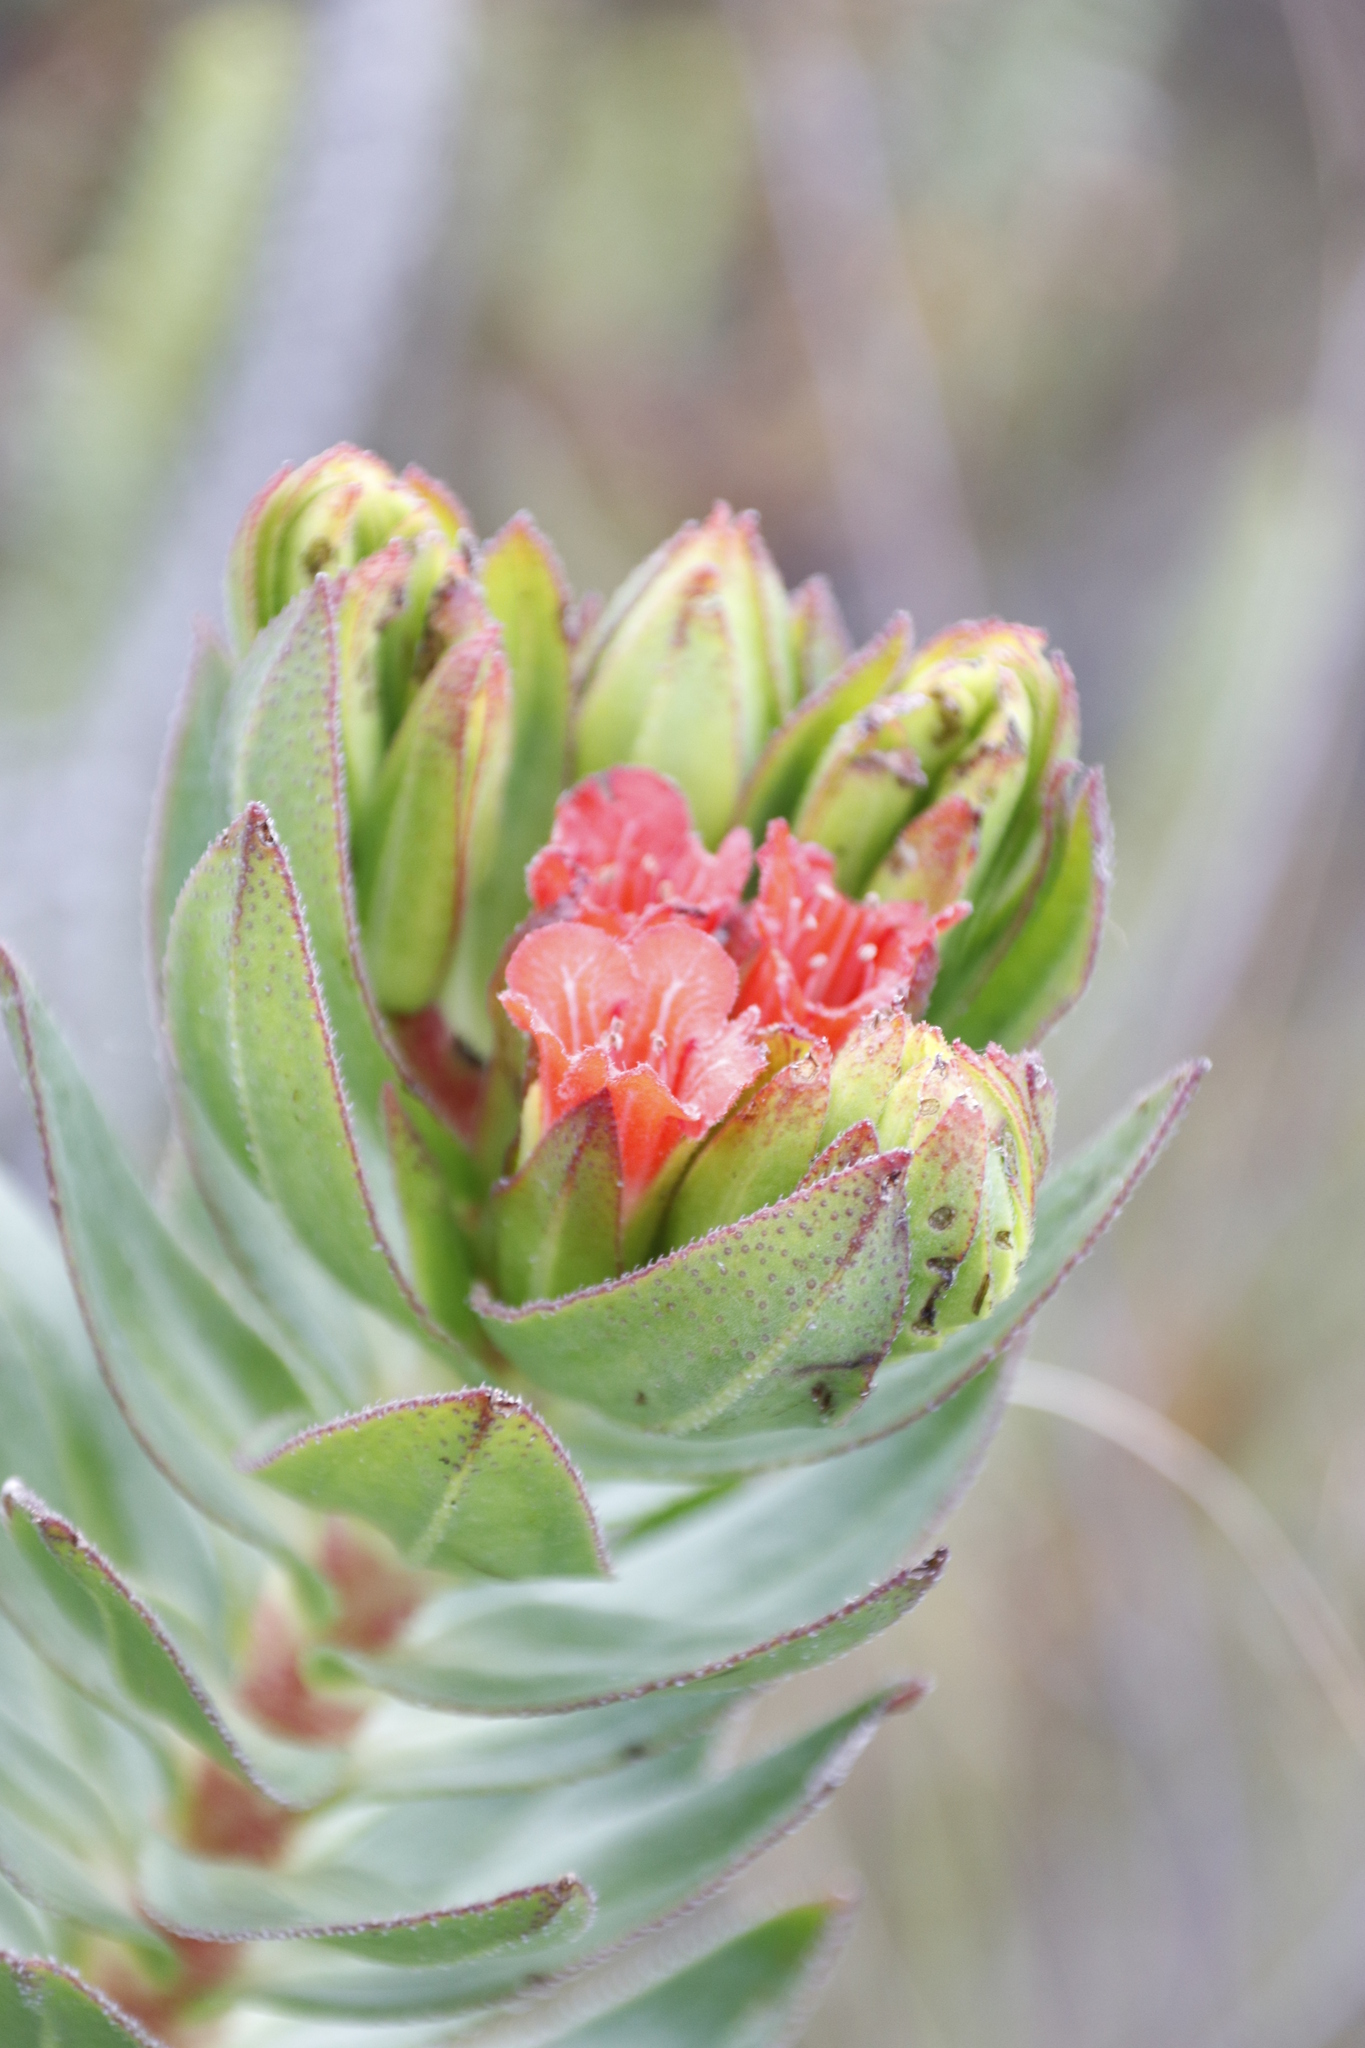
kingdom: Plantae
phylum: Tracheophyta
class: Magnoliopsida
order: Boraginales
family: Boraginaceae
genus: Lobostemon
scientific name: Lobostemon sanguineus
